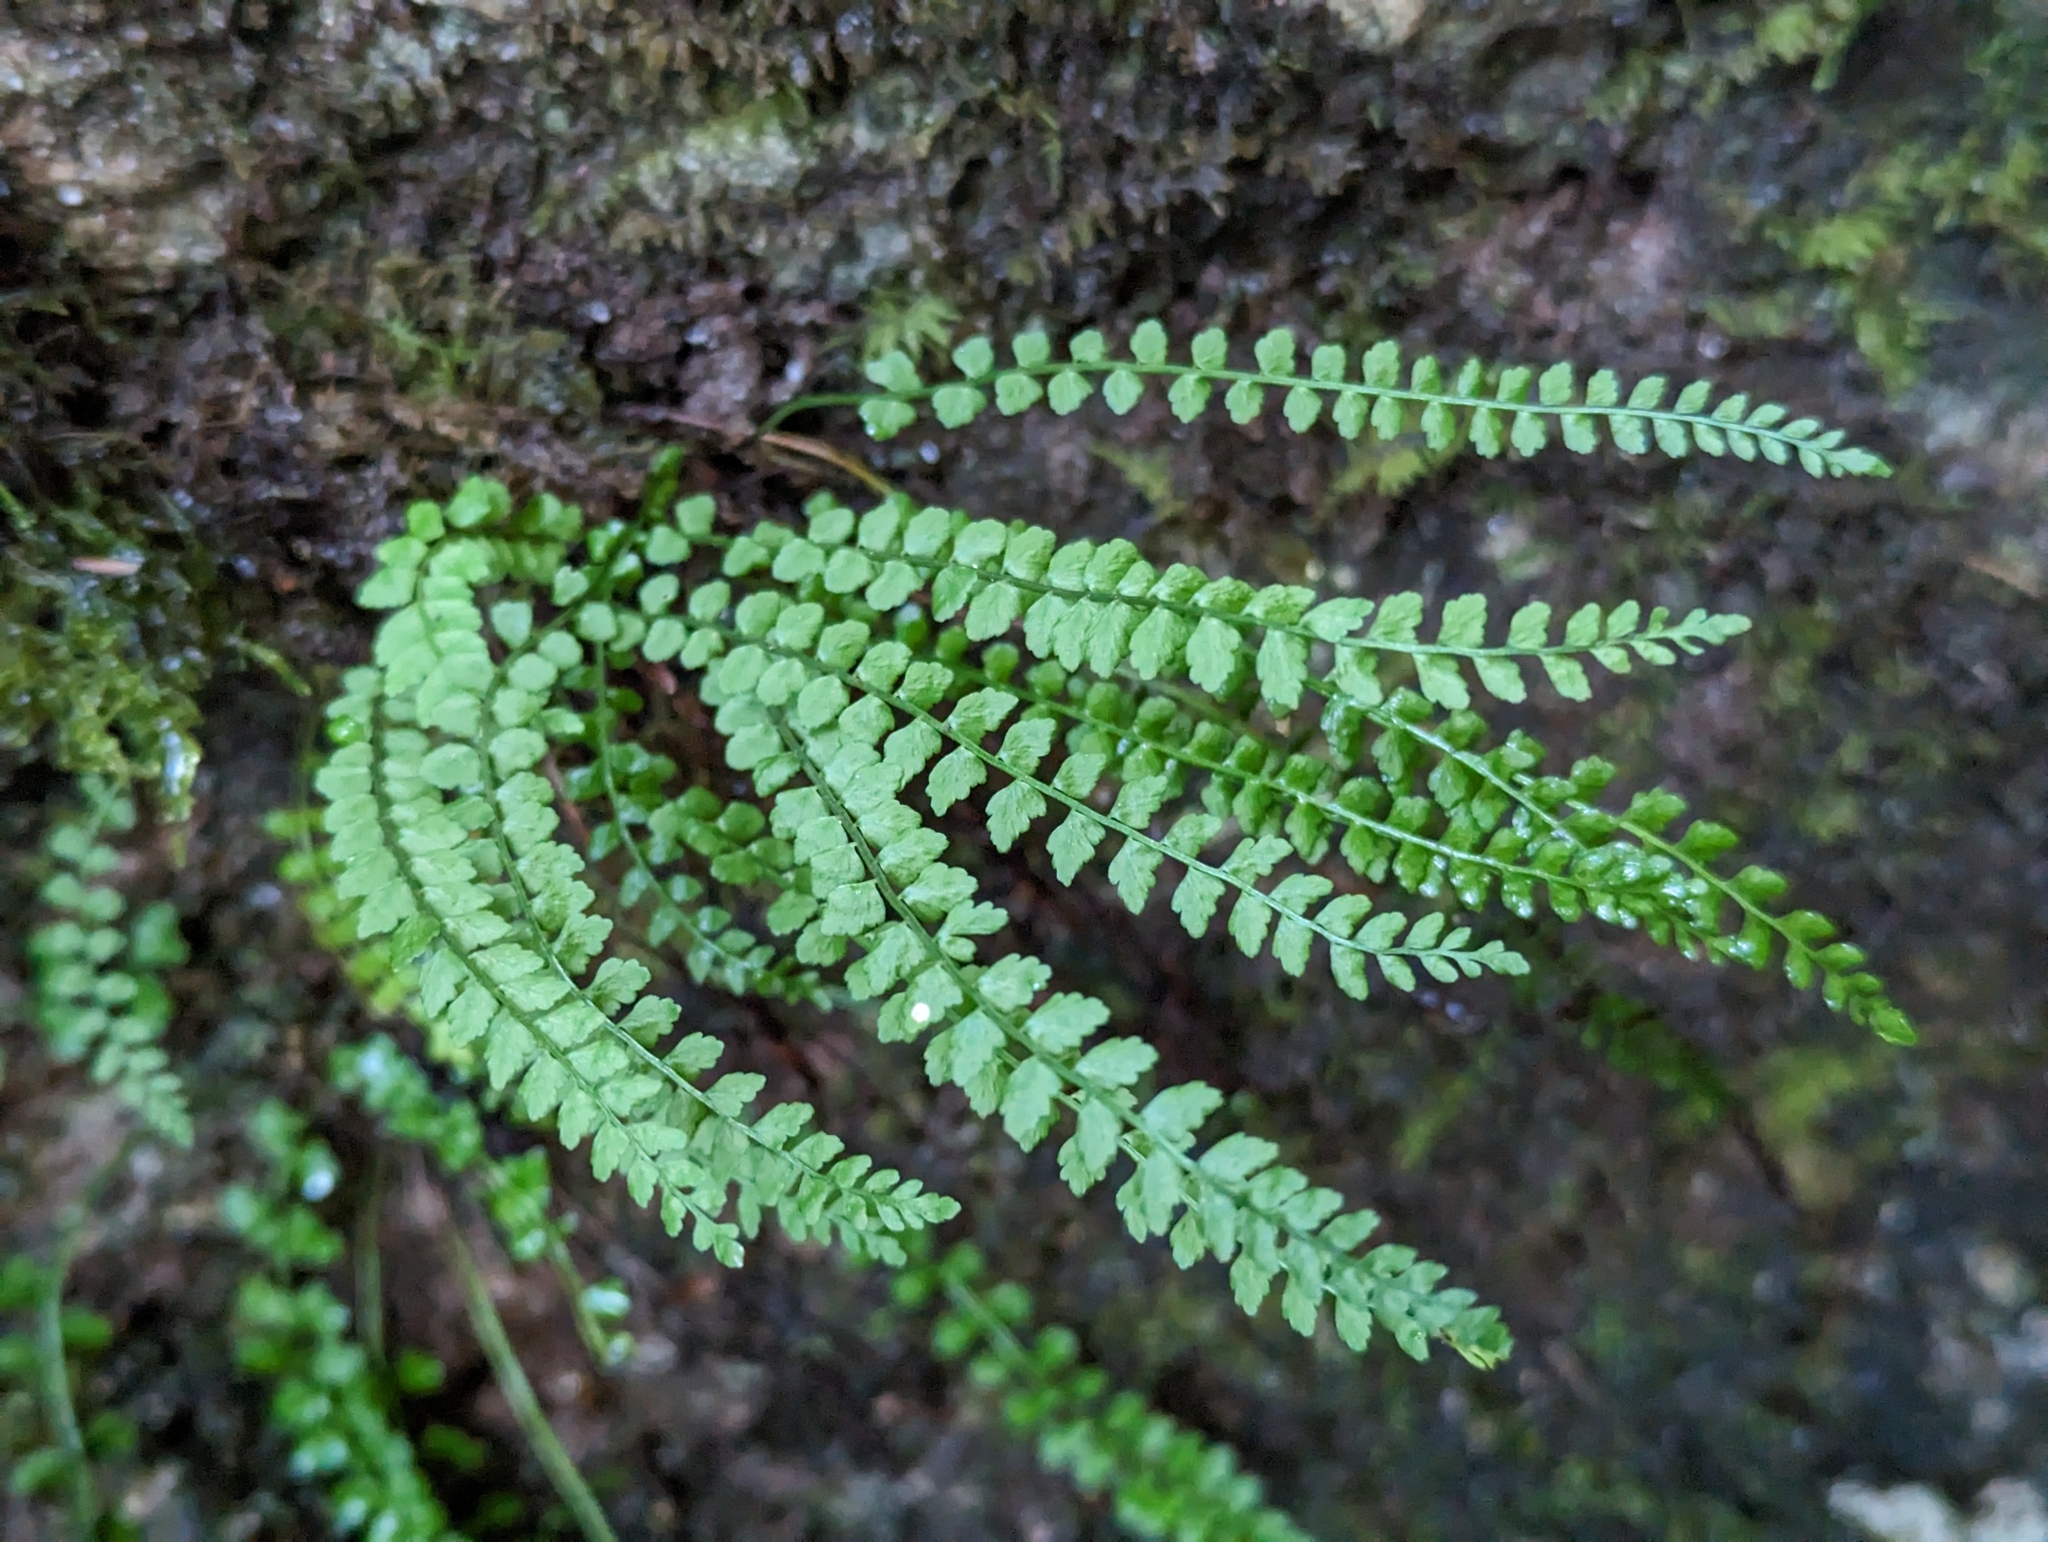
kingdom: Plantae
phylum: Tracheophyta
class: Polypodiopsida
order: Polypodiales
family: Aspleniaceae
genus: Asplenium
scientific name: Asplenium viride
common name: Green spleenwort
